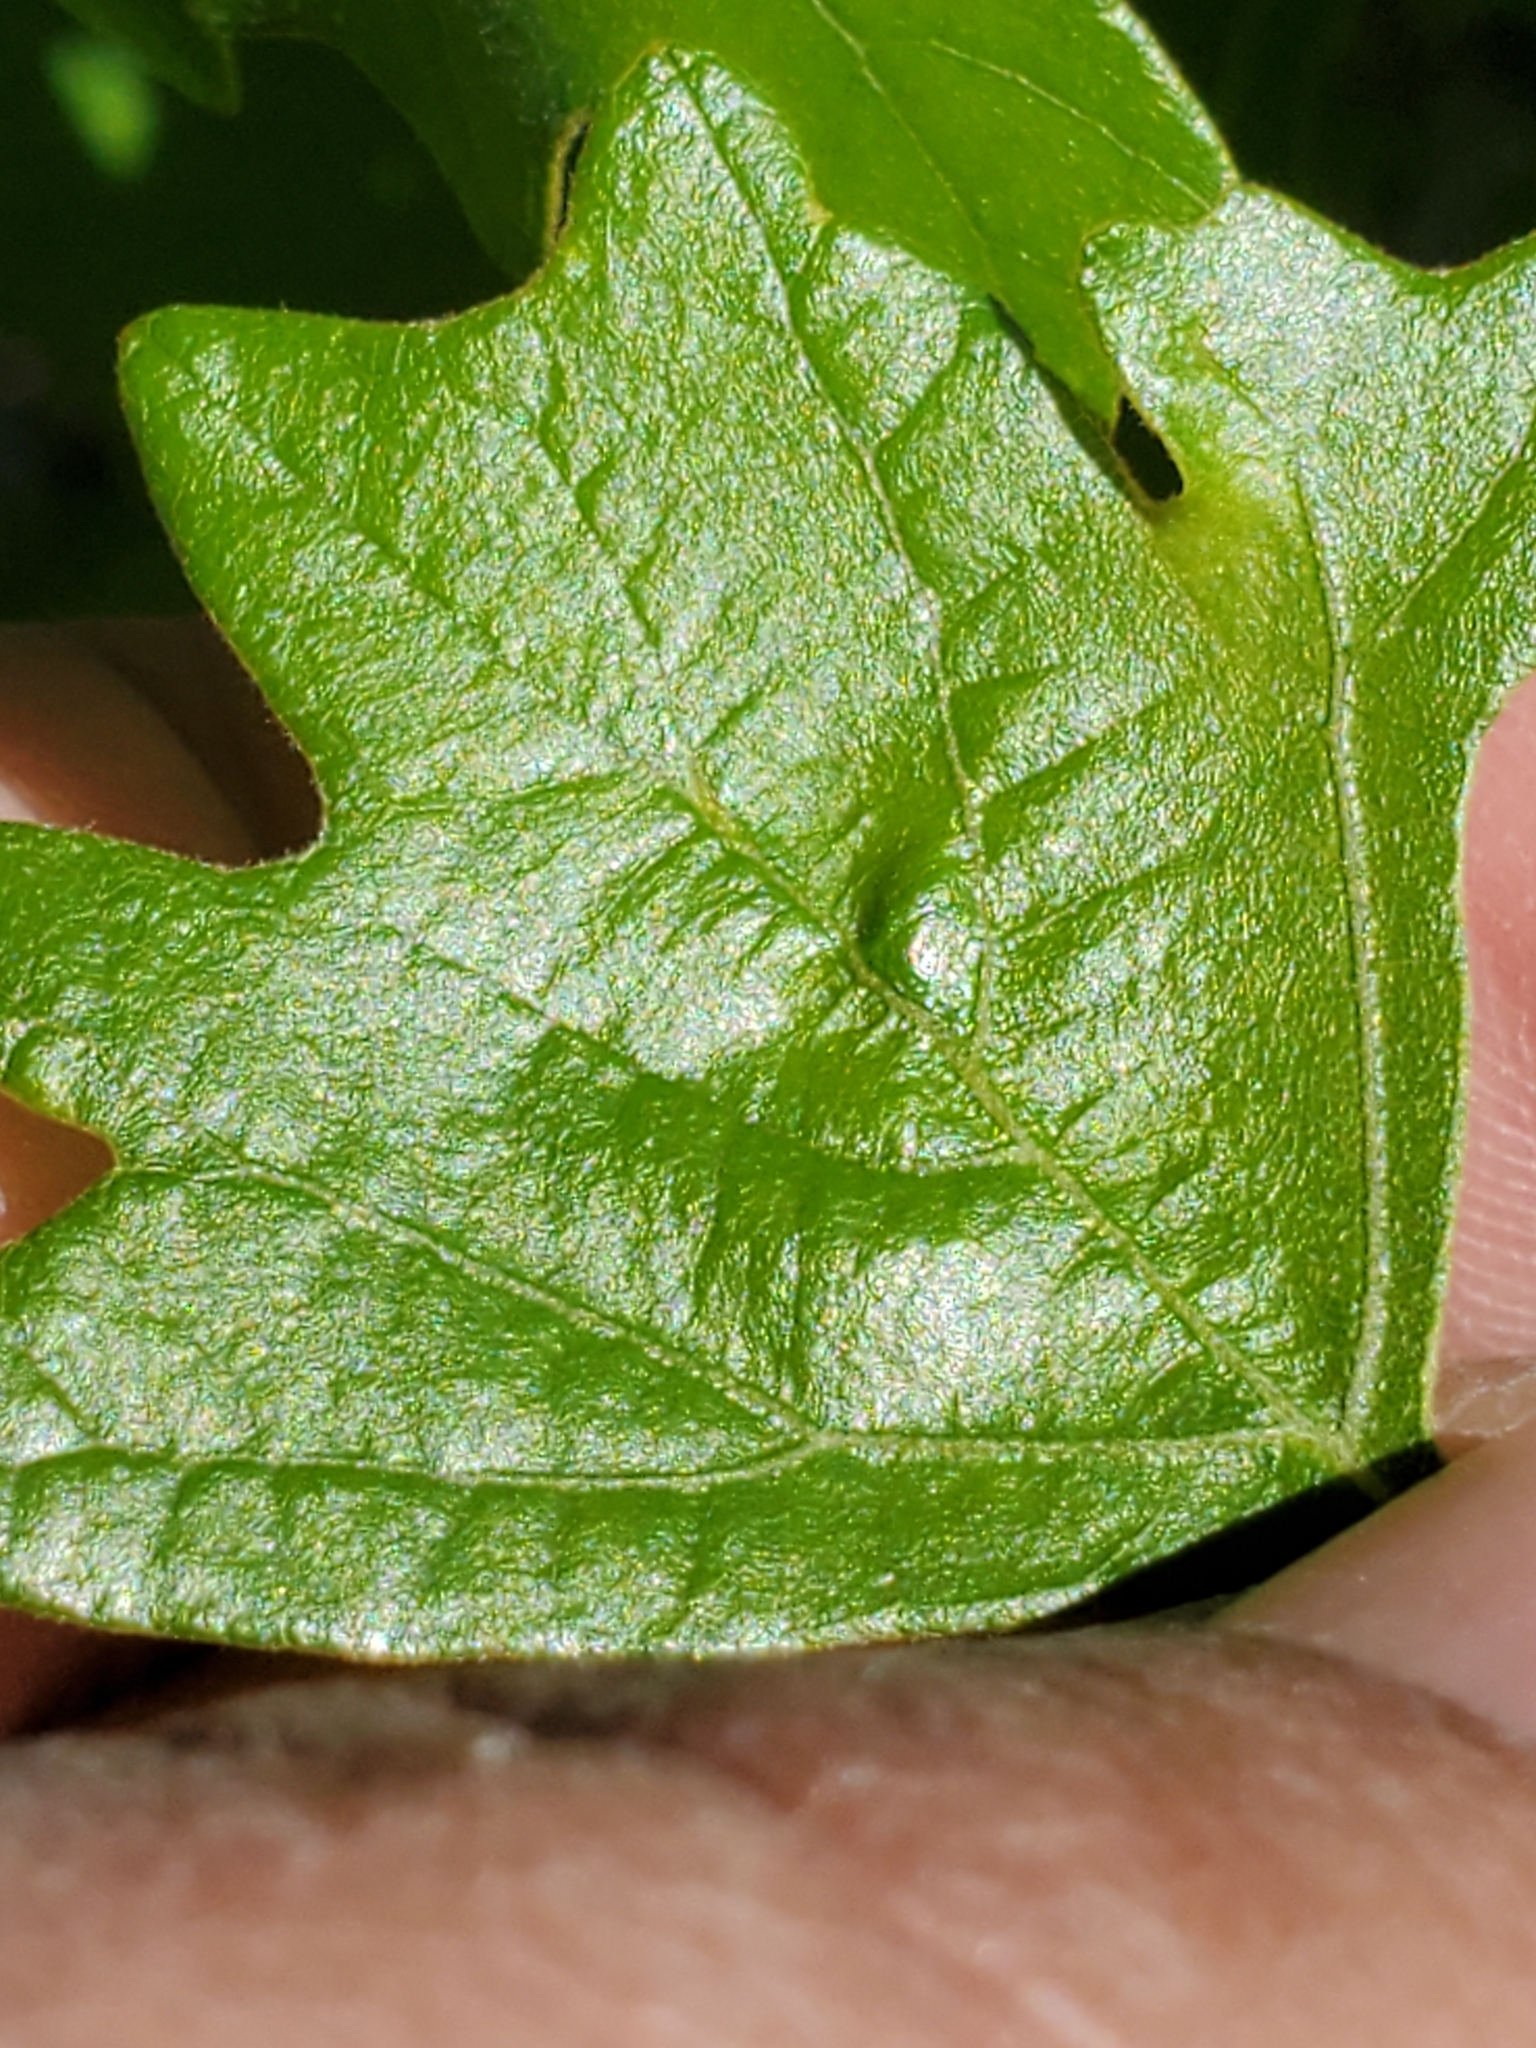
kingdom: Animalia
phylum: Arthropoda
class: Insecta
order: Hymenoptera
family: Cynipidae
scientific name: Cynipidae
